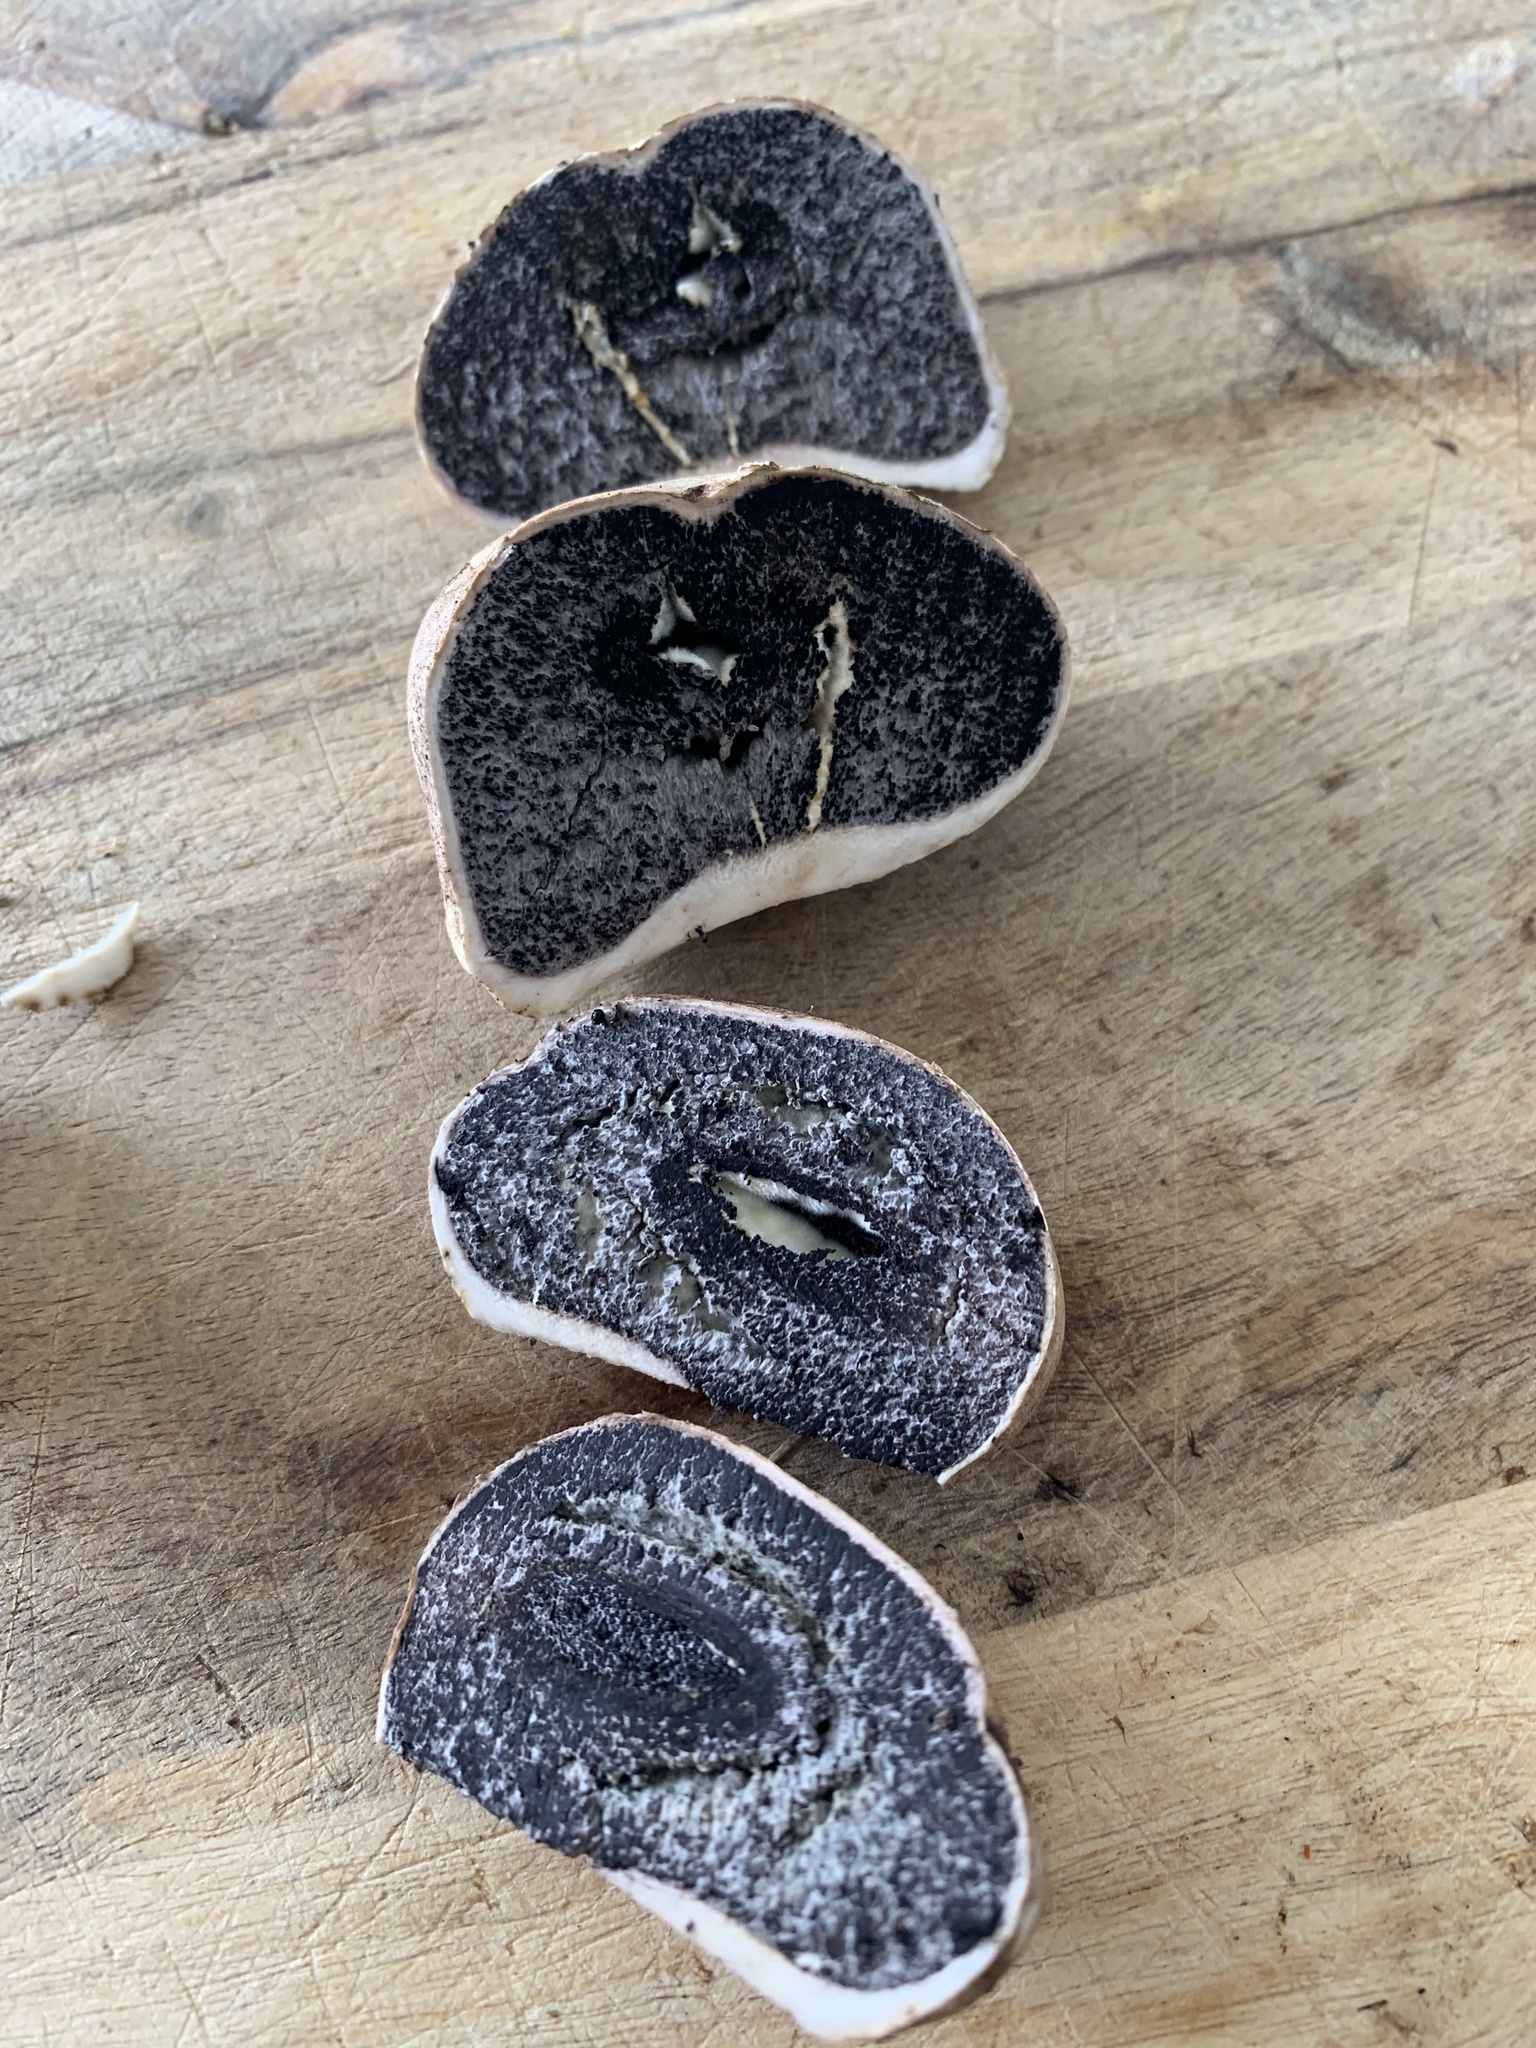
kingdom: Fungi
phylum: Basidiomycota
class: Agaricomycetes
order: Boletales
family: Sclerodermataceae
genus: Scleroderma
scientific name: Scleroderma bovista
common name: Potato earthball
